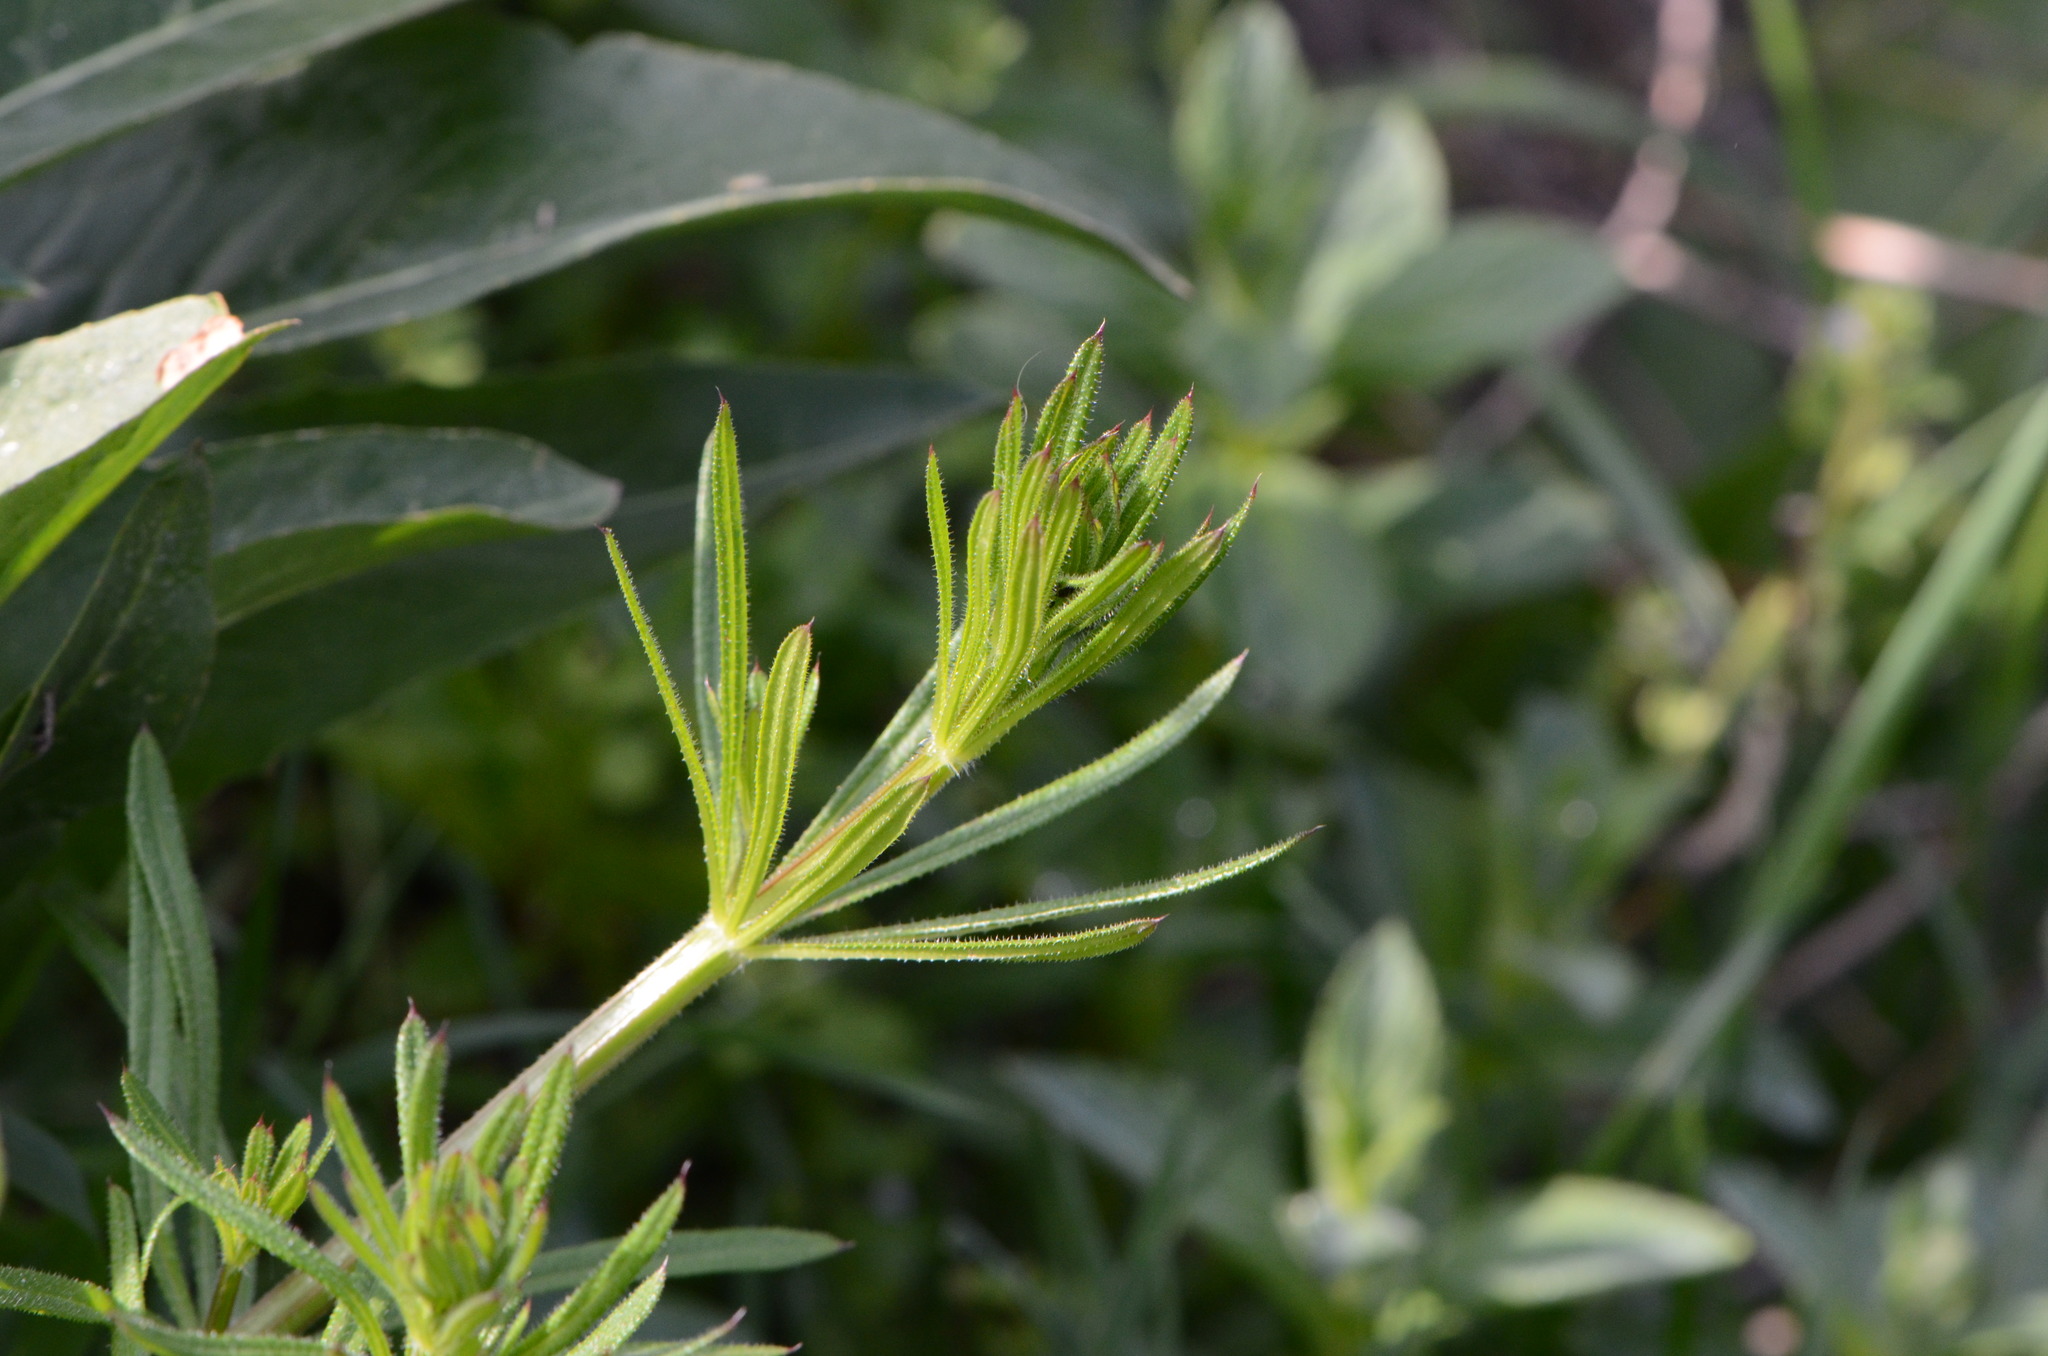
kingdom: Plantae
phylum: Tracheophyta
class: Magnoliopsida
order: Gentianales
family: Rubiaceae
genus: Galium
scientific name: Galium aparine
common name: Cleavers
